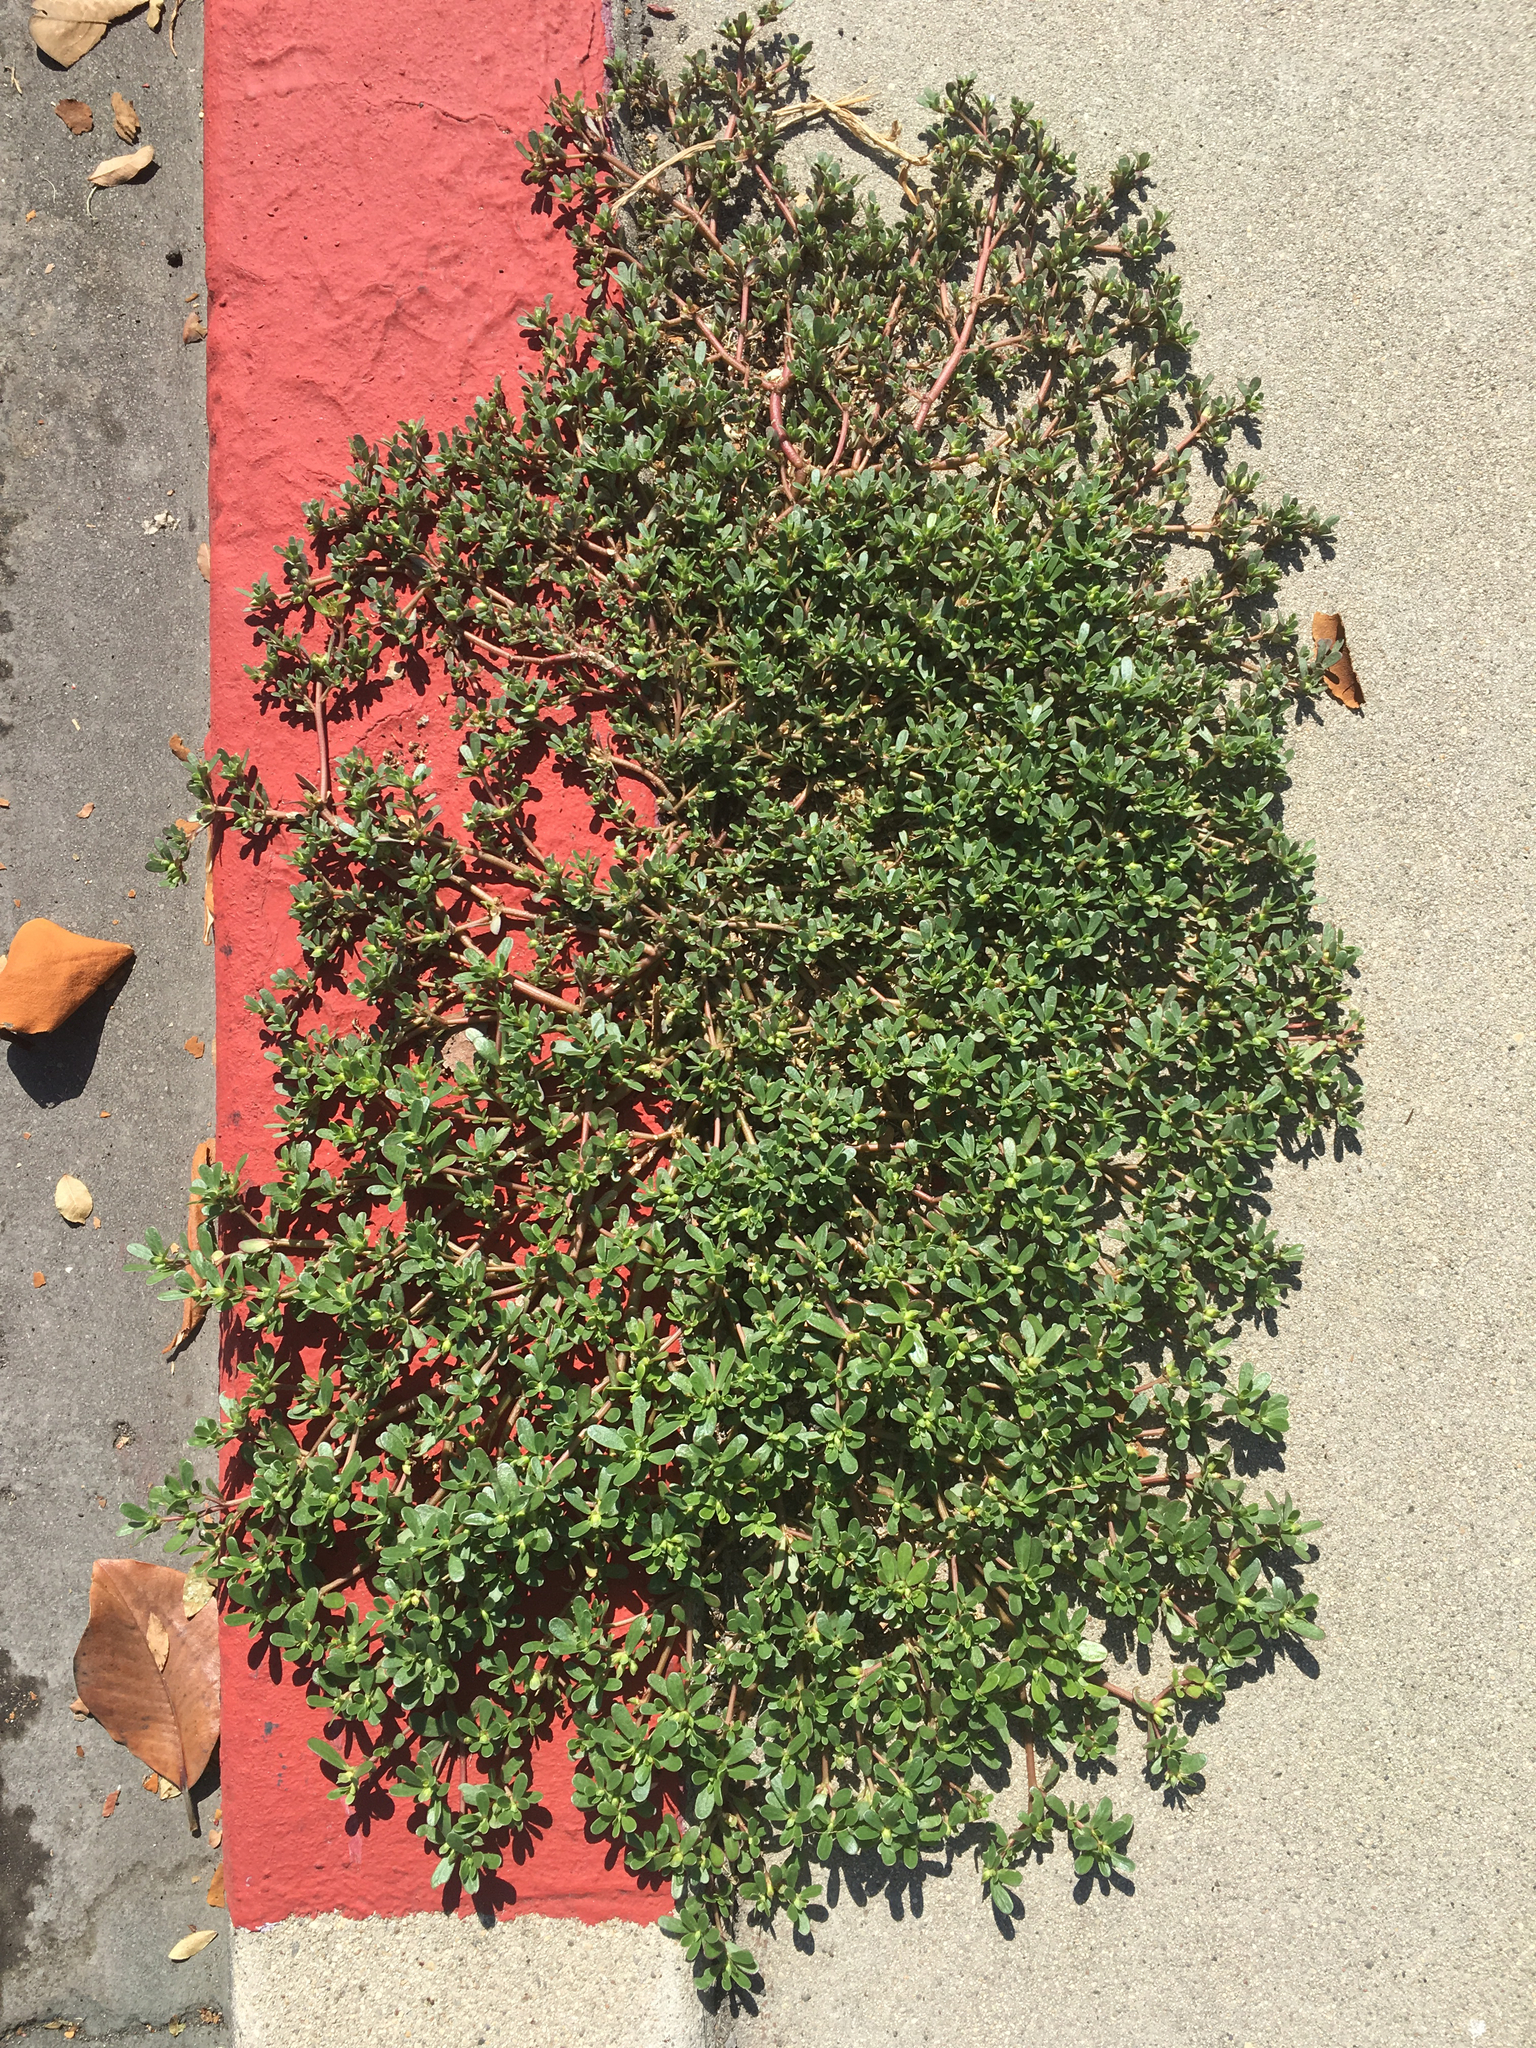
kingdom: Plantae
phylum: Tracheophyta
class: Magnoliopsida
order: Caryophyllales
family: Portulacaceae
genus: Portulaca
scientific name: Portulaca oleracea
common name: Common purslane
